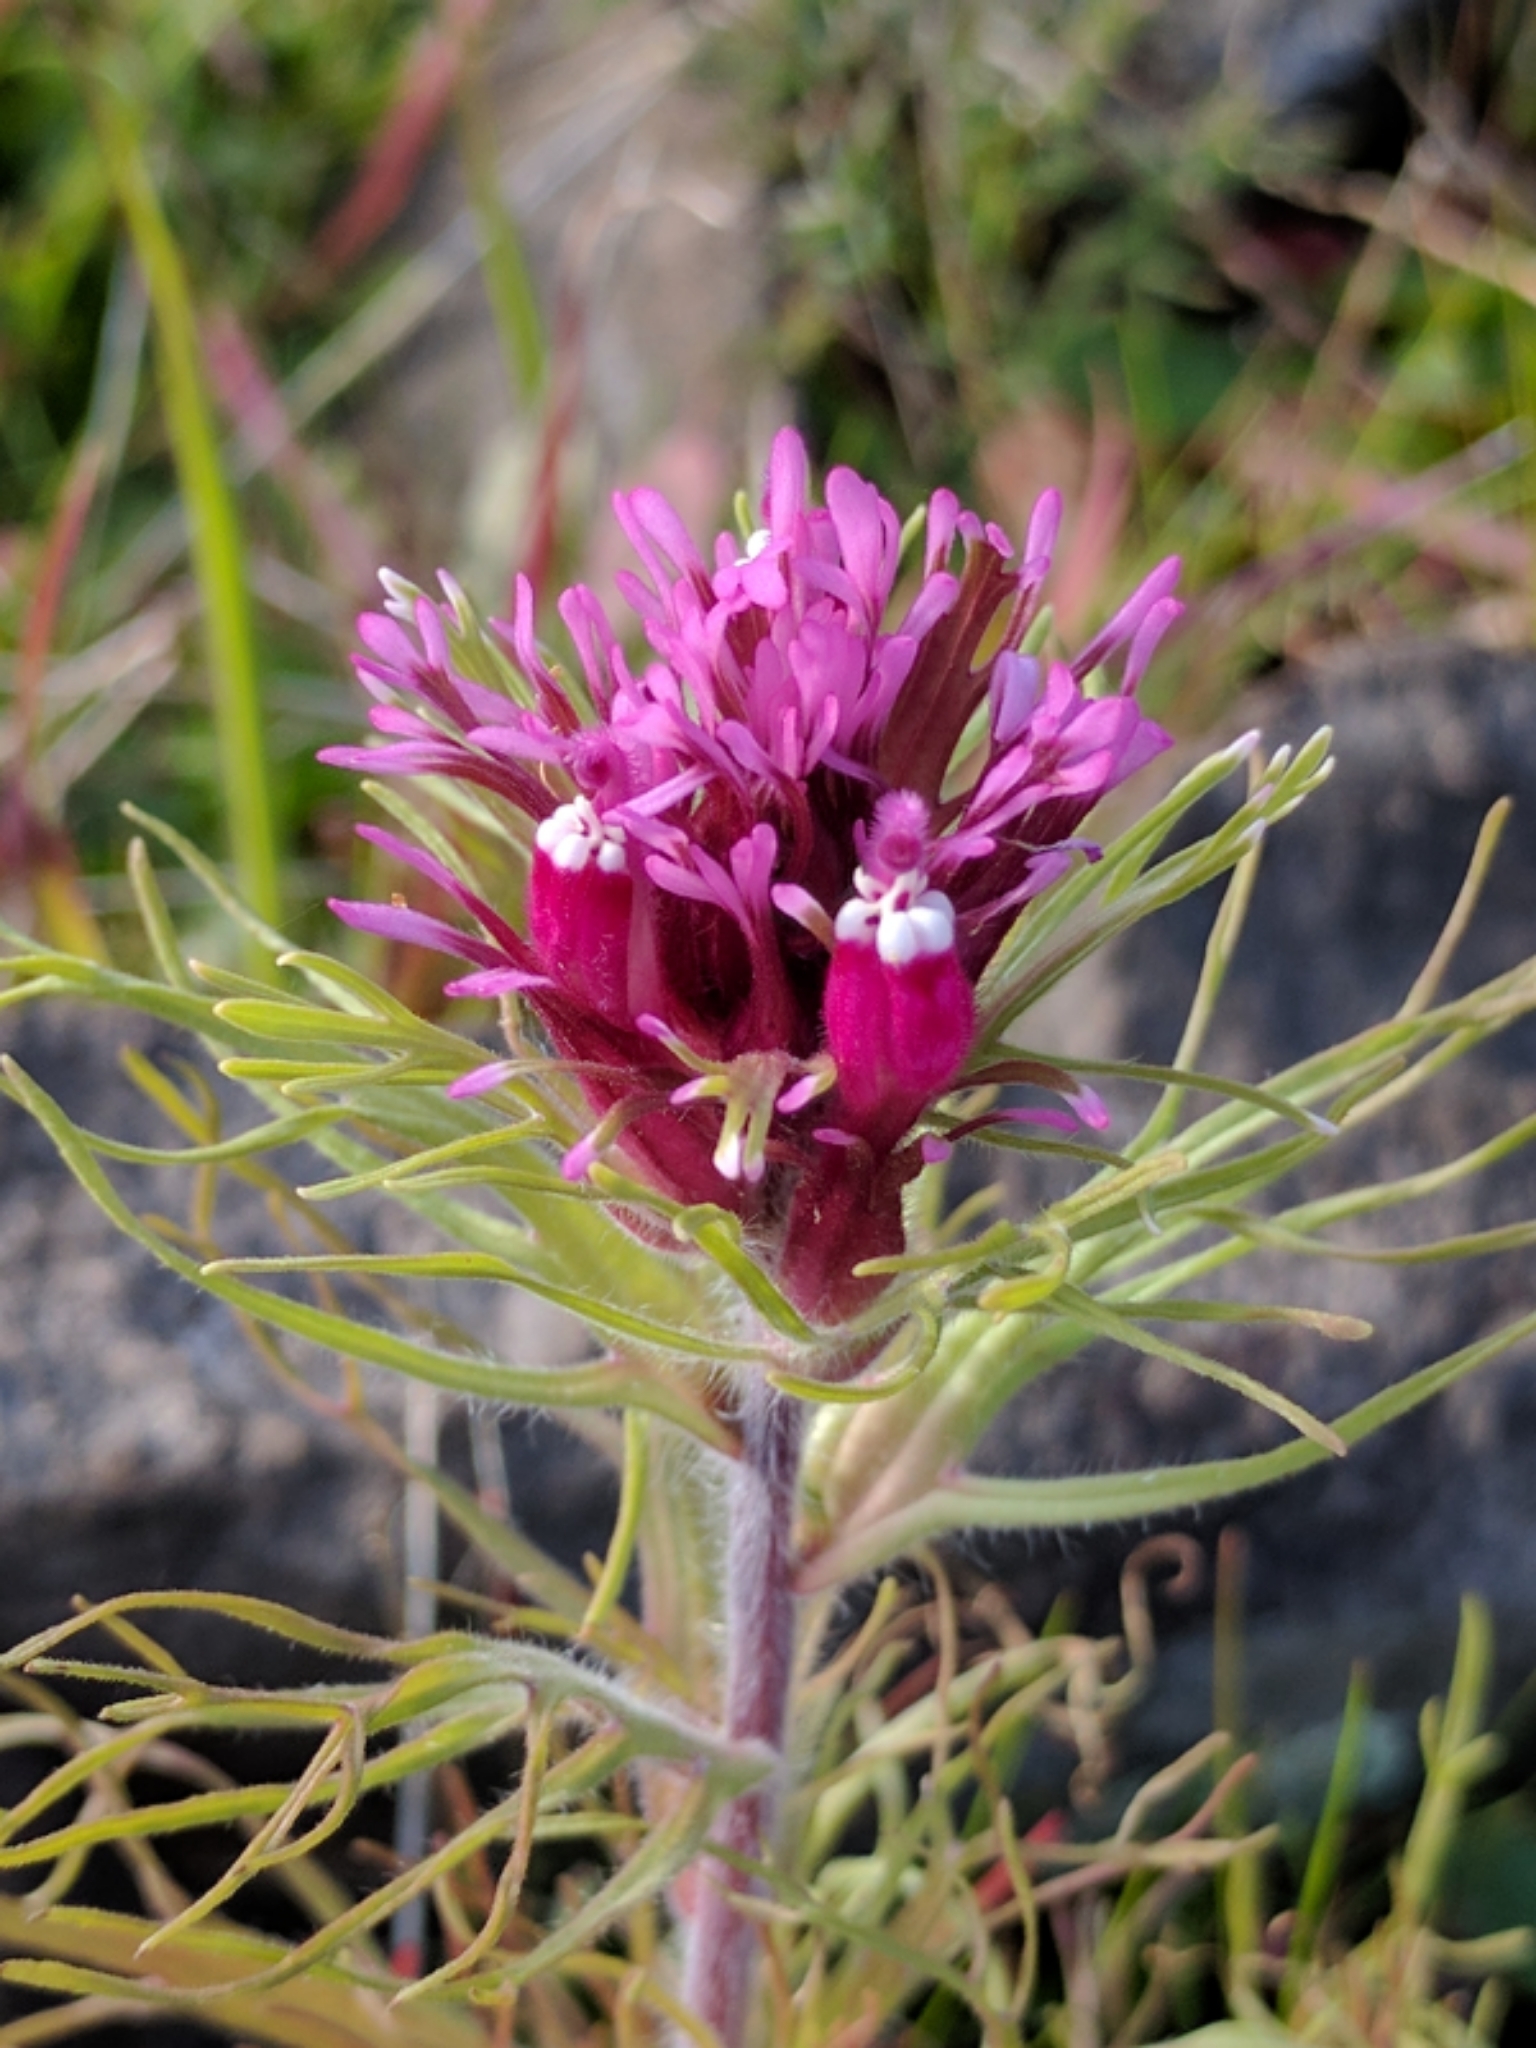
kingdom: Plantae
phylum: Tracheophyta
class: Magnoliopsida
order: Lamiales
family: Orobanchaceae
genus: Castilleja
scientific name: Castilleja exserta
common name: Purple owl-clover
